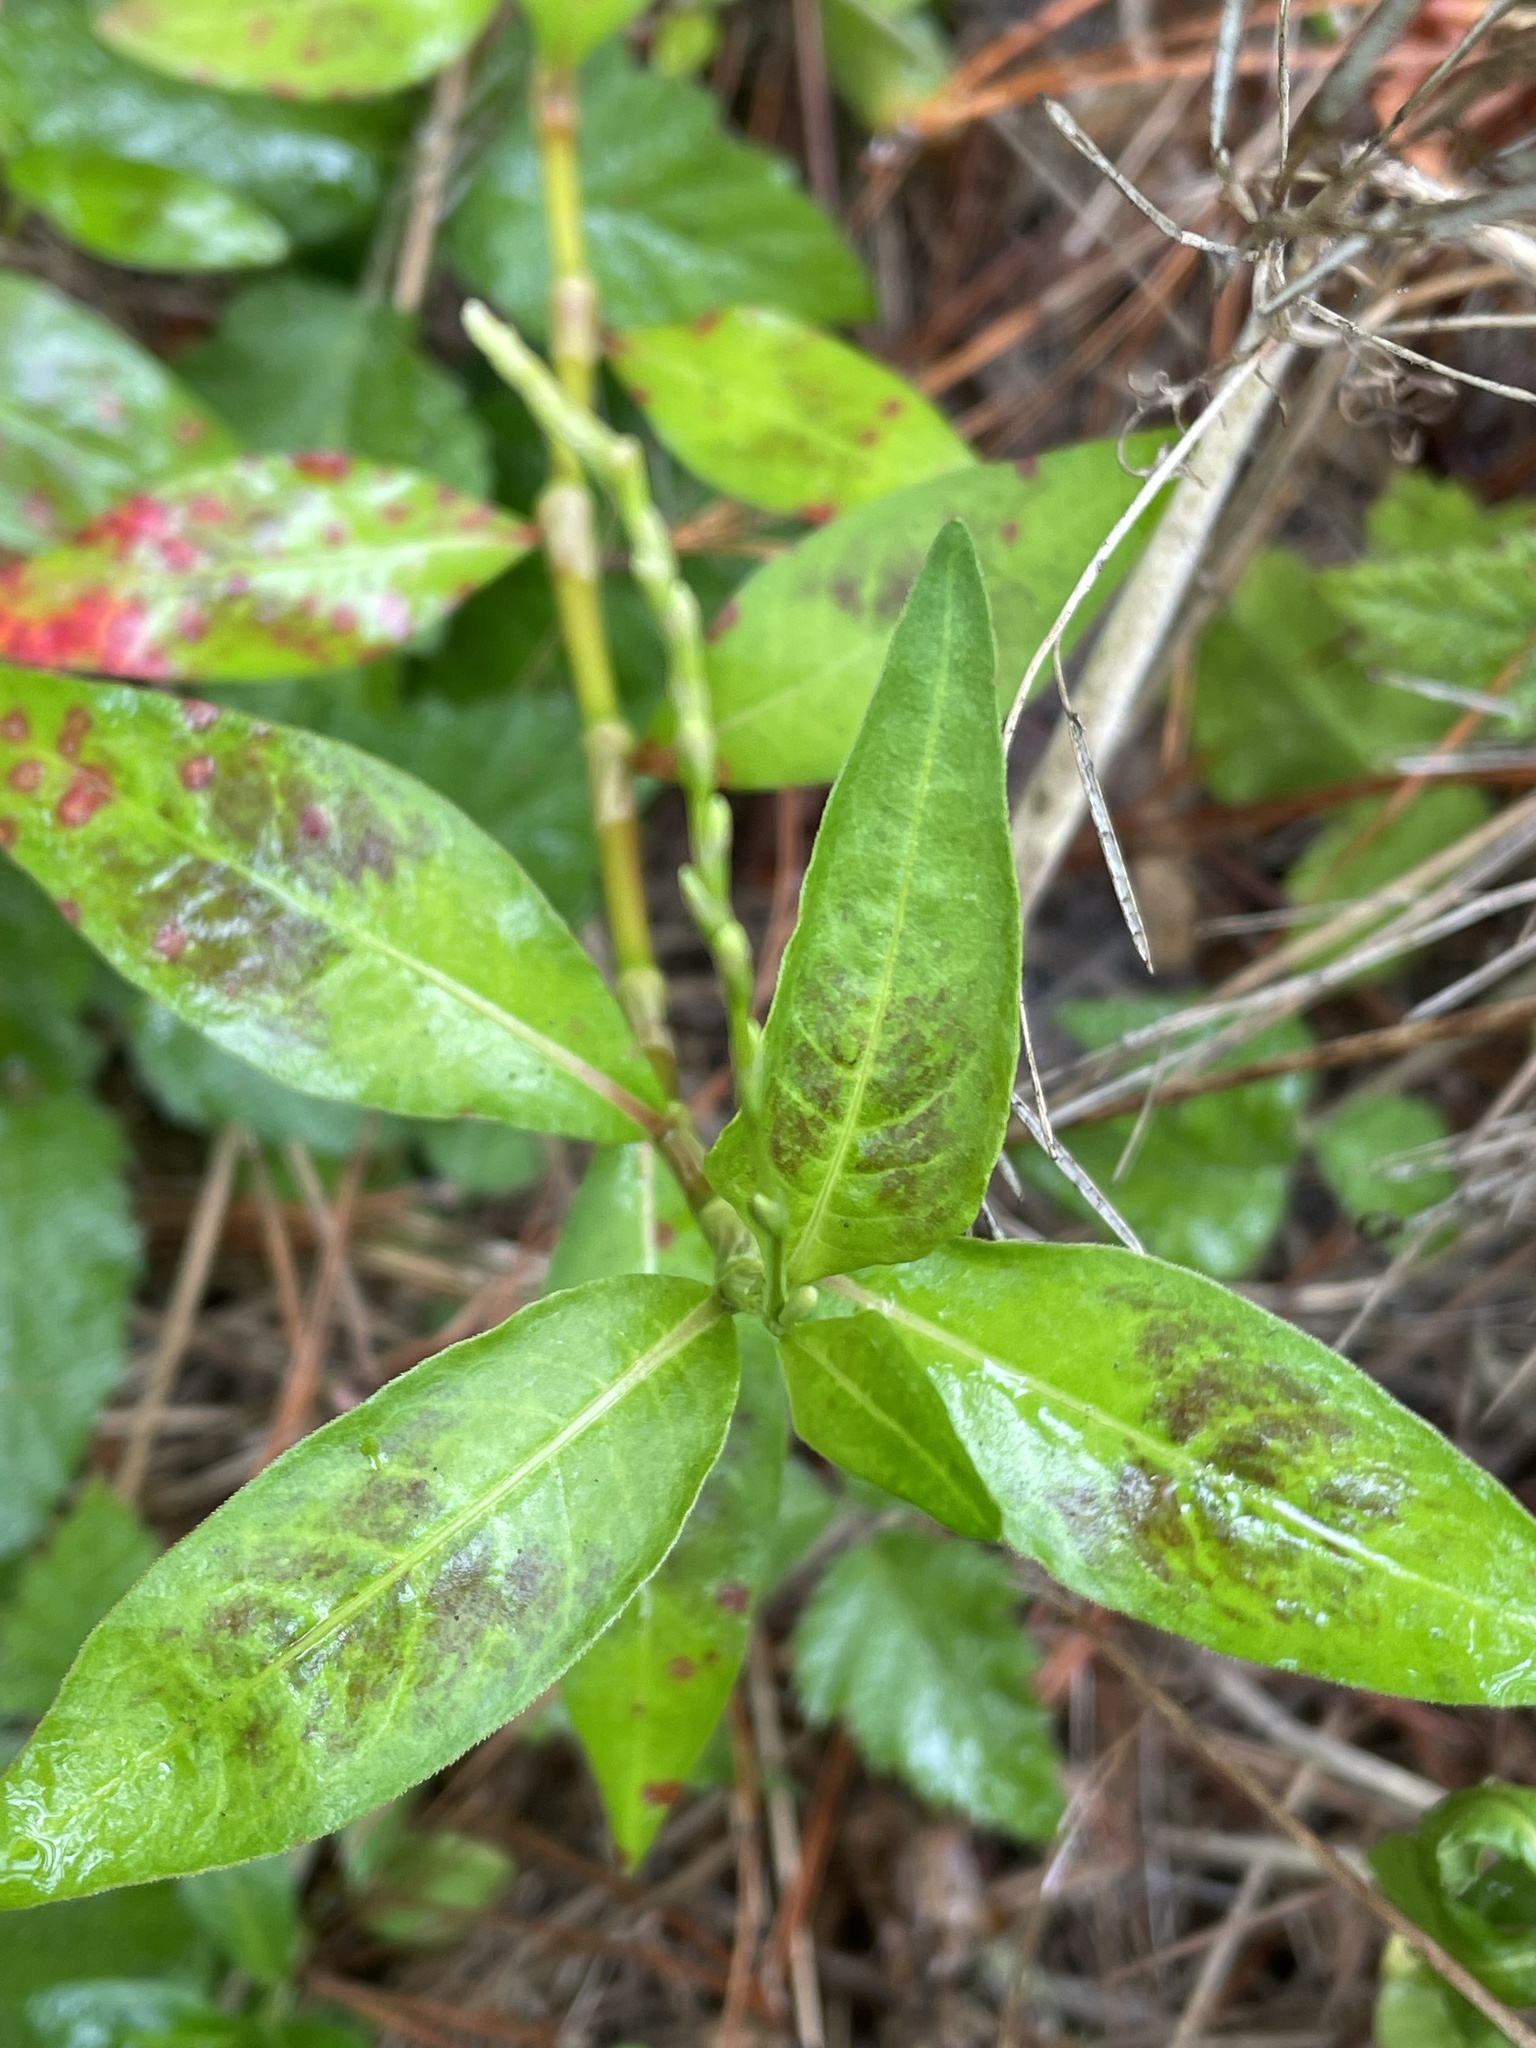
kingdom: Plantae
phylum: Tracheophyta
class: Magnoliopsida
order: Caryophyllales
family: Polygonaceae
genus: Persicaria
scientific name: Persicaria punctata
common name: Dotted smartweed
